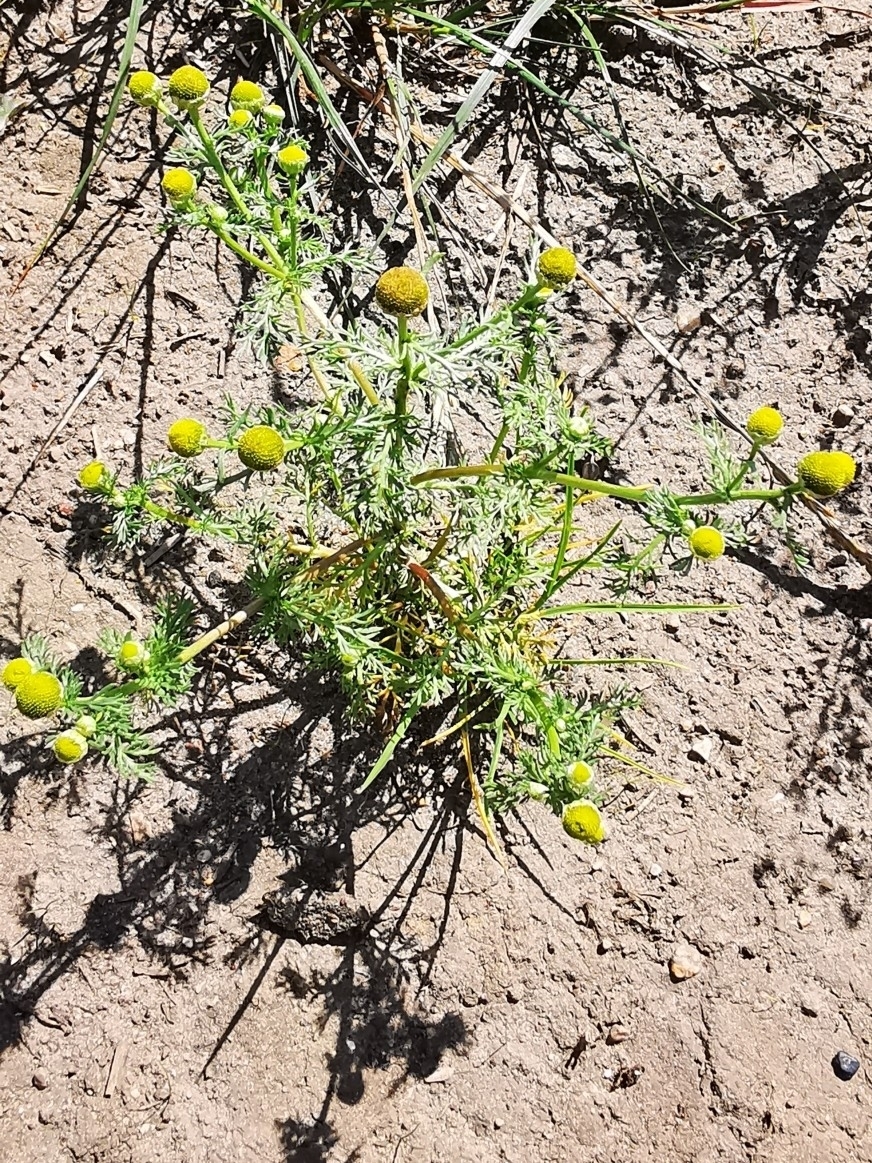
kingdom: Plantae
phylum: Tracheophyta
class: Magnoliopsida
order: Asterales
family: Asteraceae
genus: Matricaria
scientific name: Matricaria discoidea
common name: Disc mayweed
